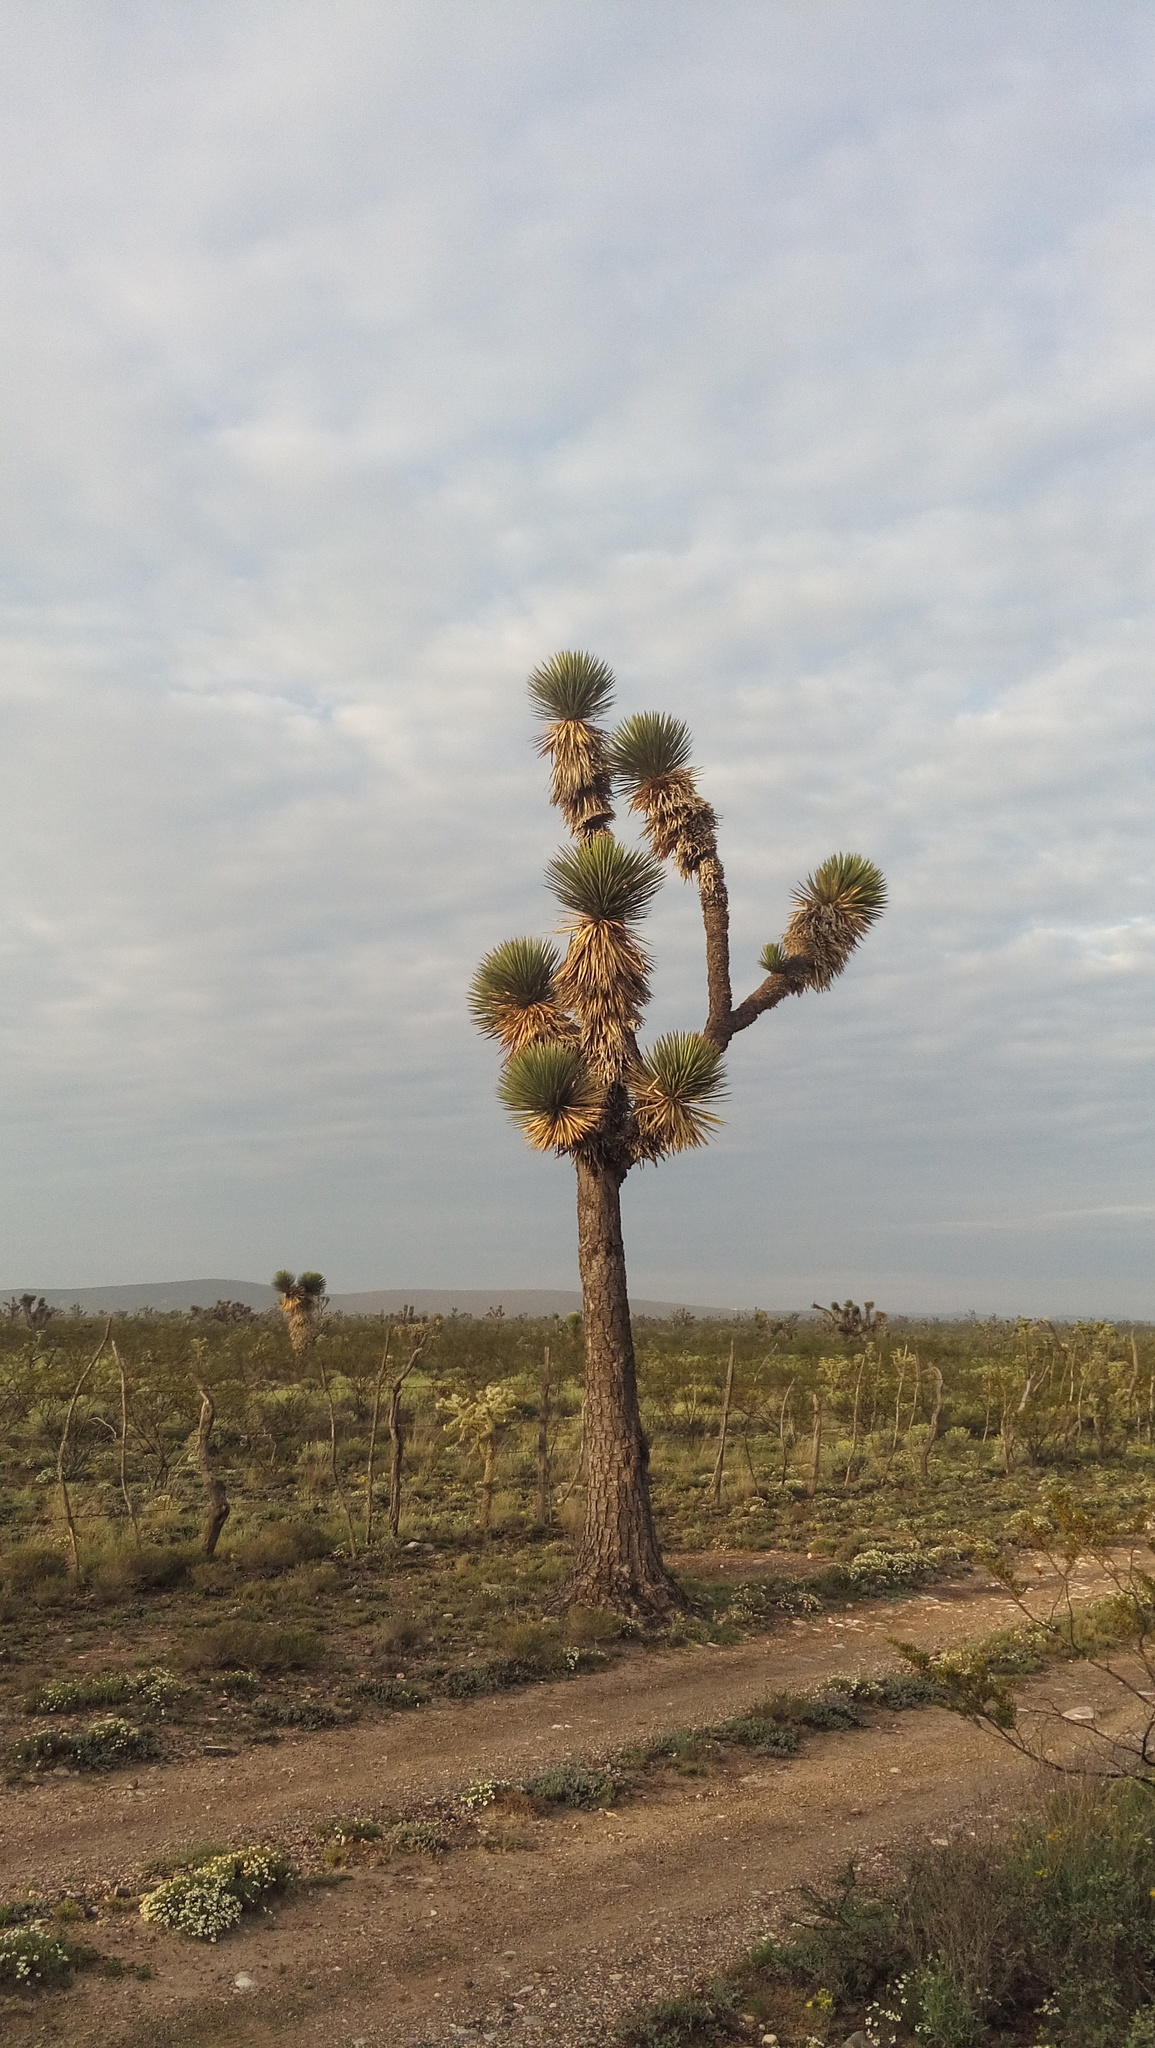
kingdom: Plantae
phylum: Tracheophyta
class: Liliopsida
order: Asparagales
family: Asparagaceae
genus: Yucca
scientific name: Yucca decipiens
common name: Chinese palm
